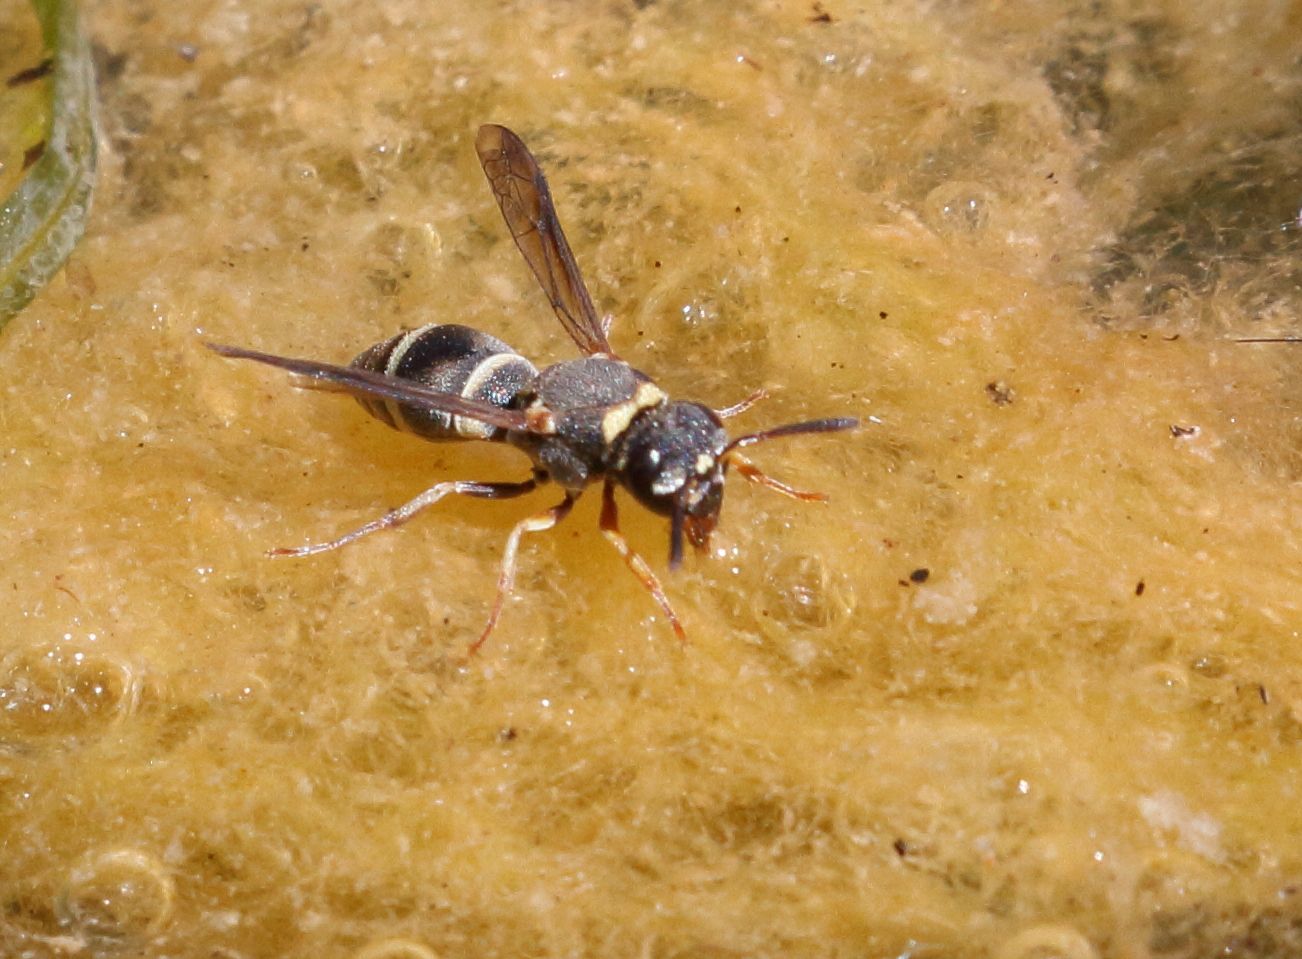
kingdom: Animalia
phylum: Arthropoda
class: Insecta
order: Hymenoptera
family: Eumenidae
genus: Antepipona
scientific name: Antepipona
